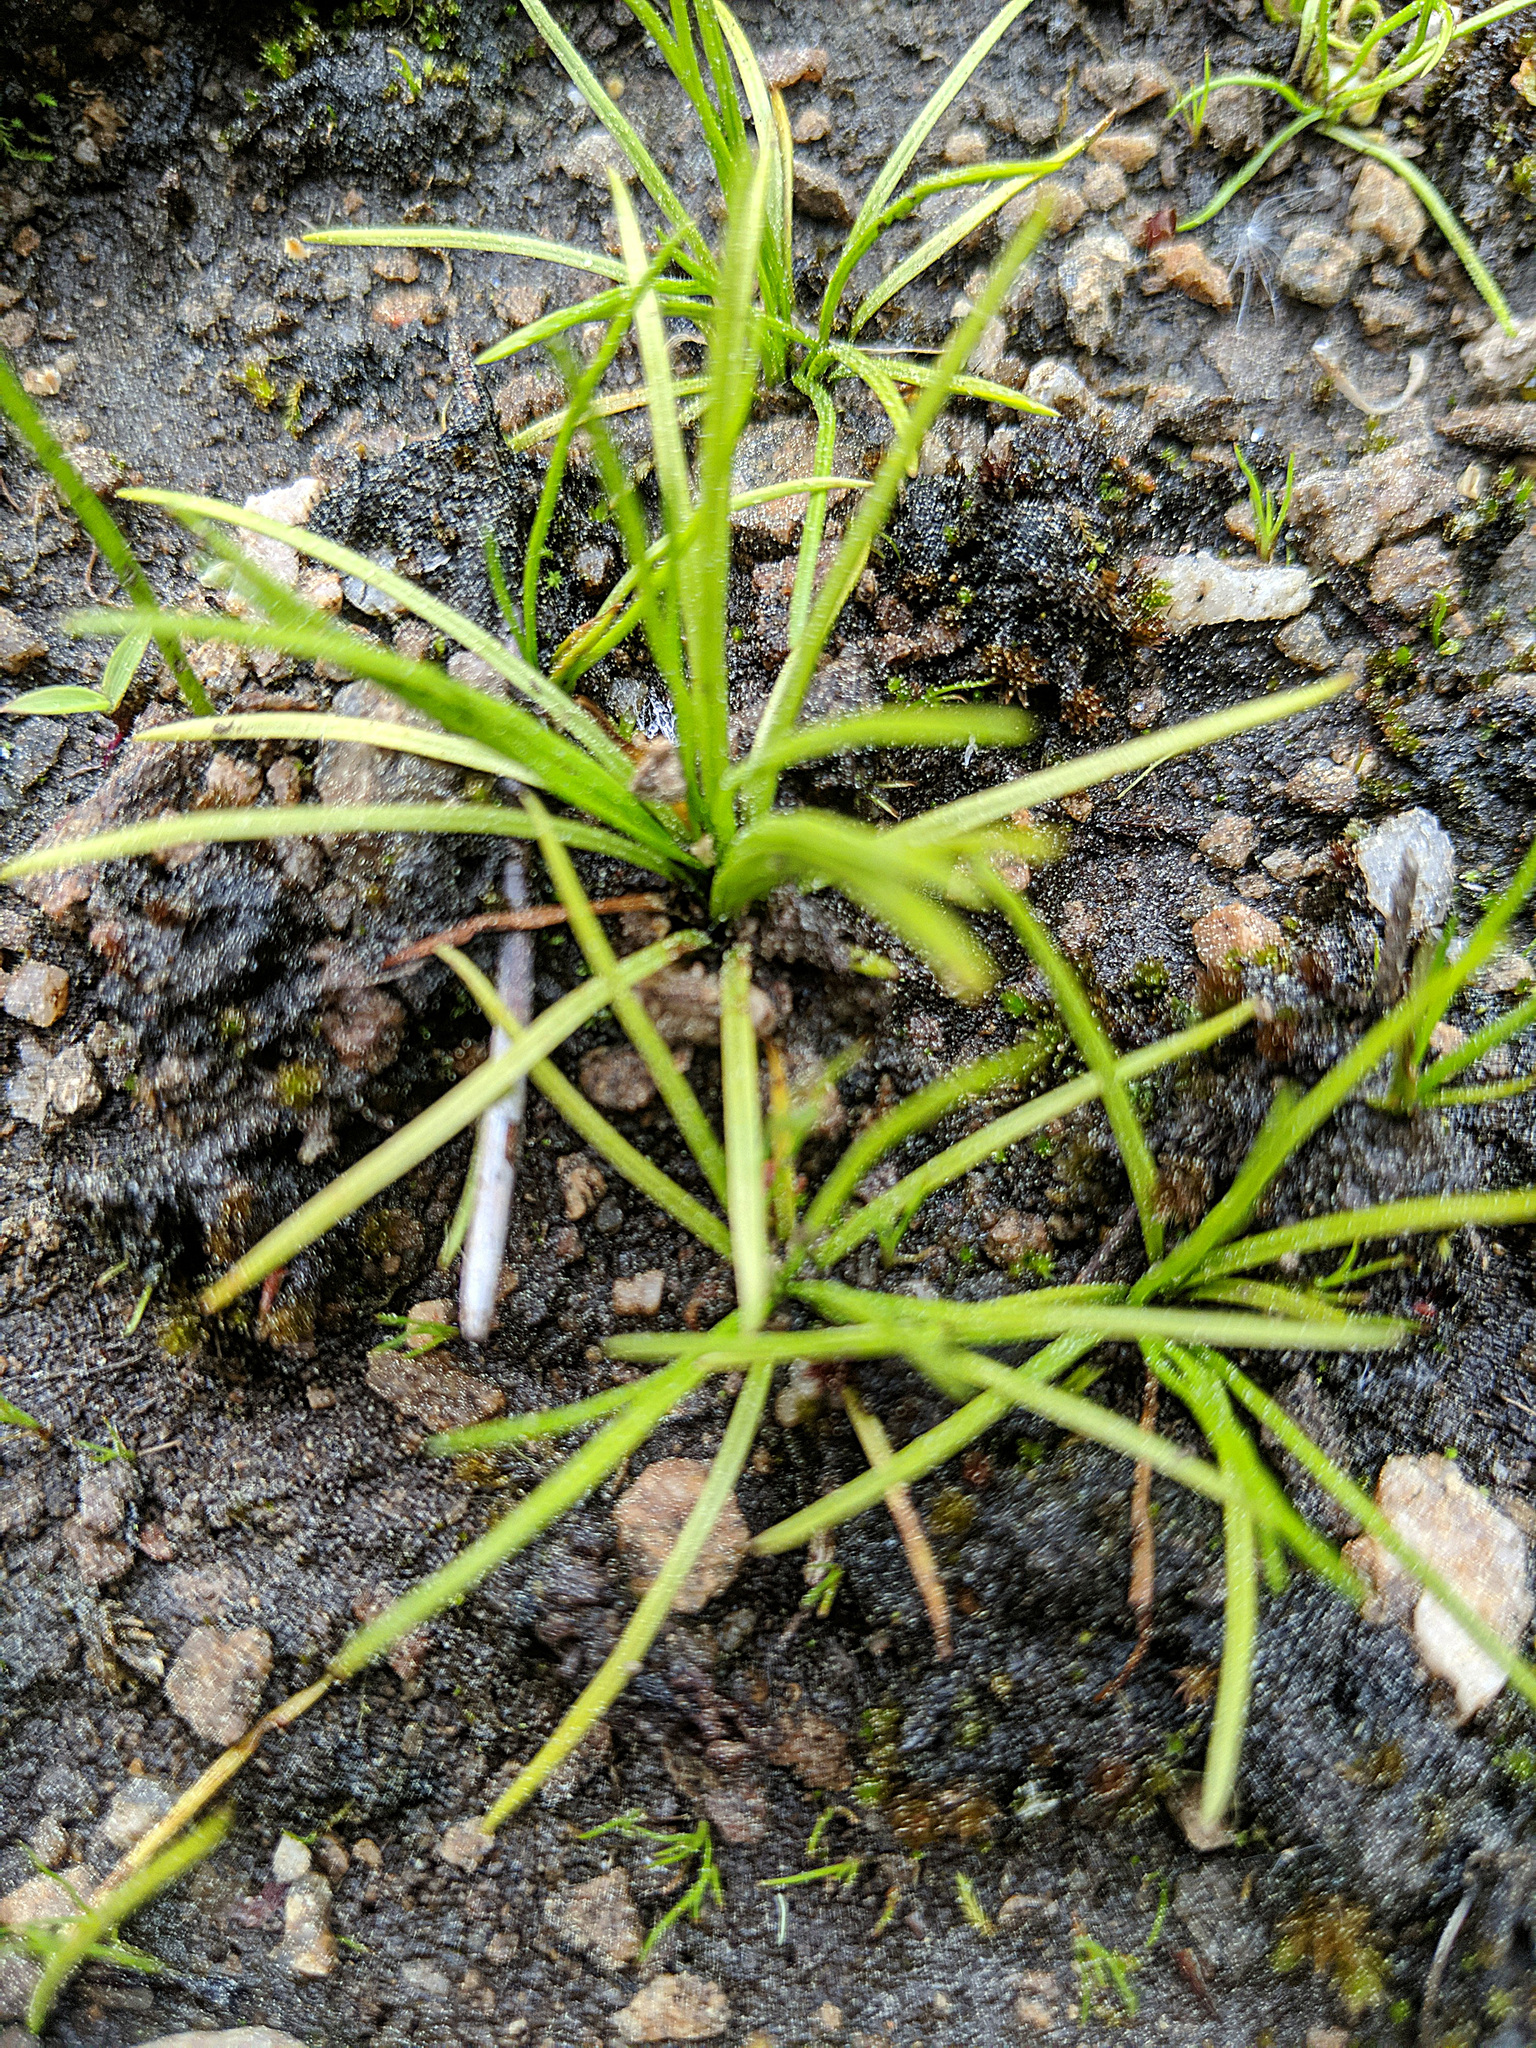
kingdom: Plantae
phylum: Tracheophyta
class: Lycopodiopsida
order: Isoetales
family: Isoetaceae
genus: Isoetes
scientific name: Isoetes minima
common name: Midget quillwort
